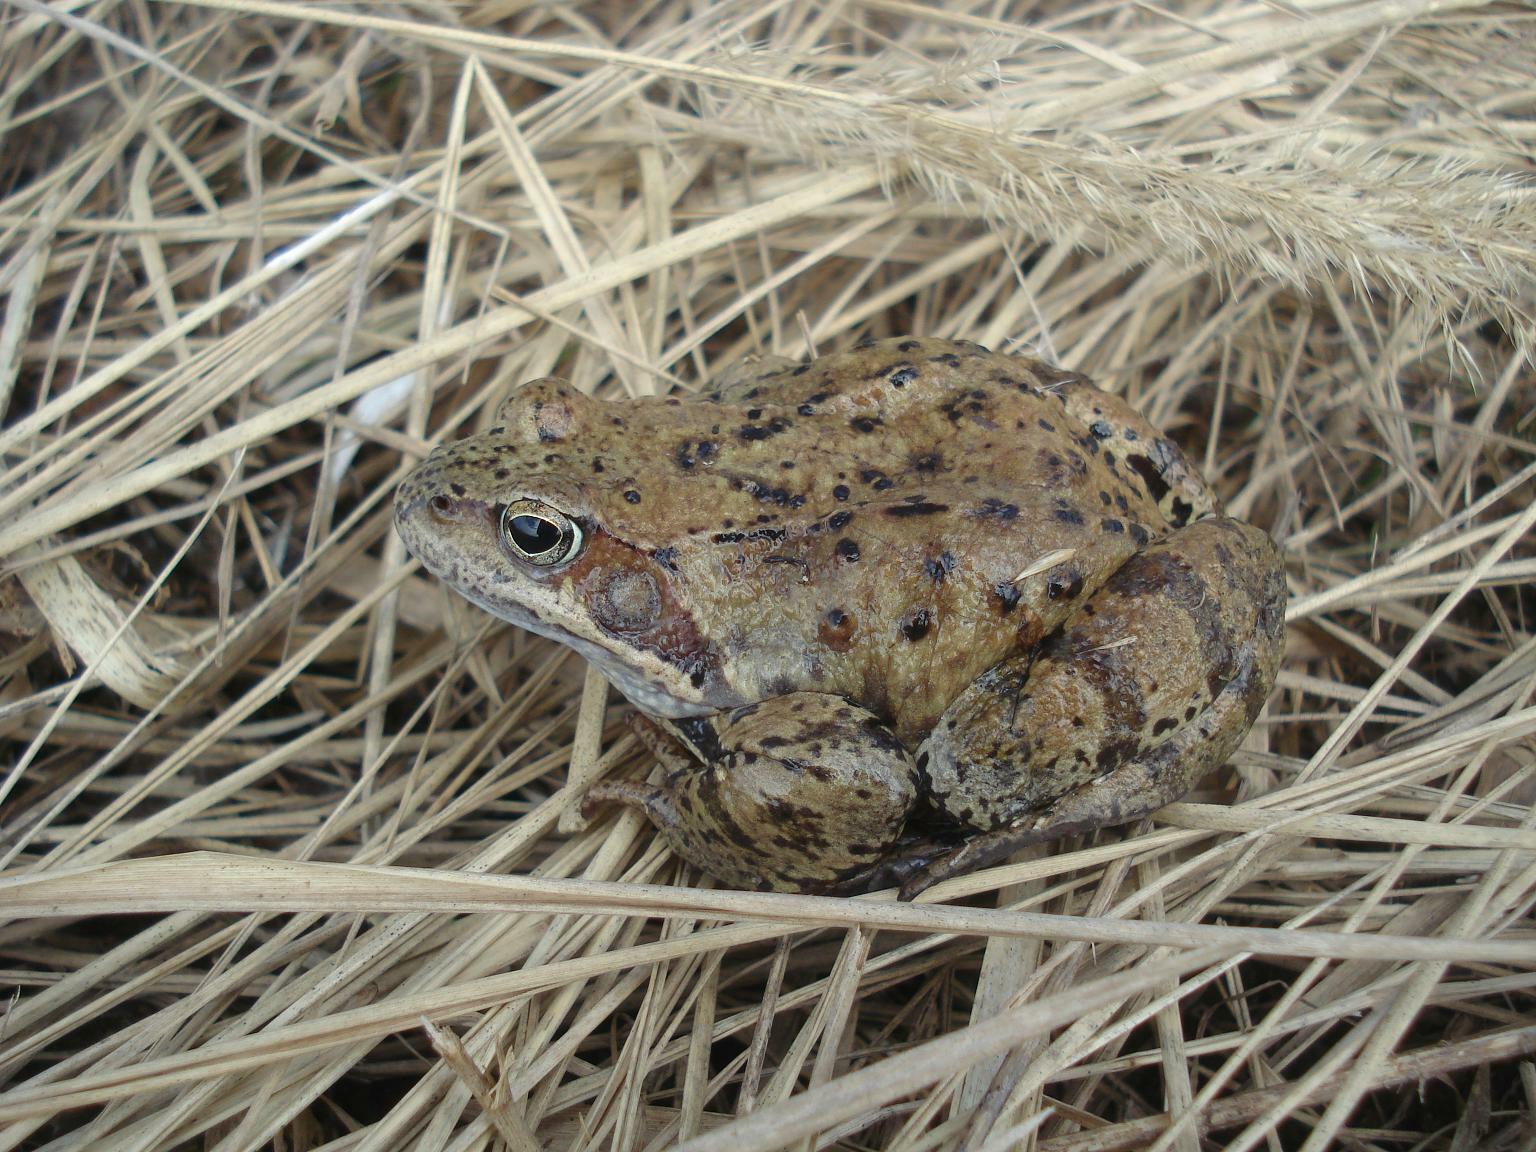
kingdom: Animalia
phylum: Chordata
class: Amphibia
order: Anura
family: Ranidae
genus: Rana
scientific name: Rana temporaria
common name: Common frog
